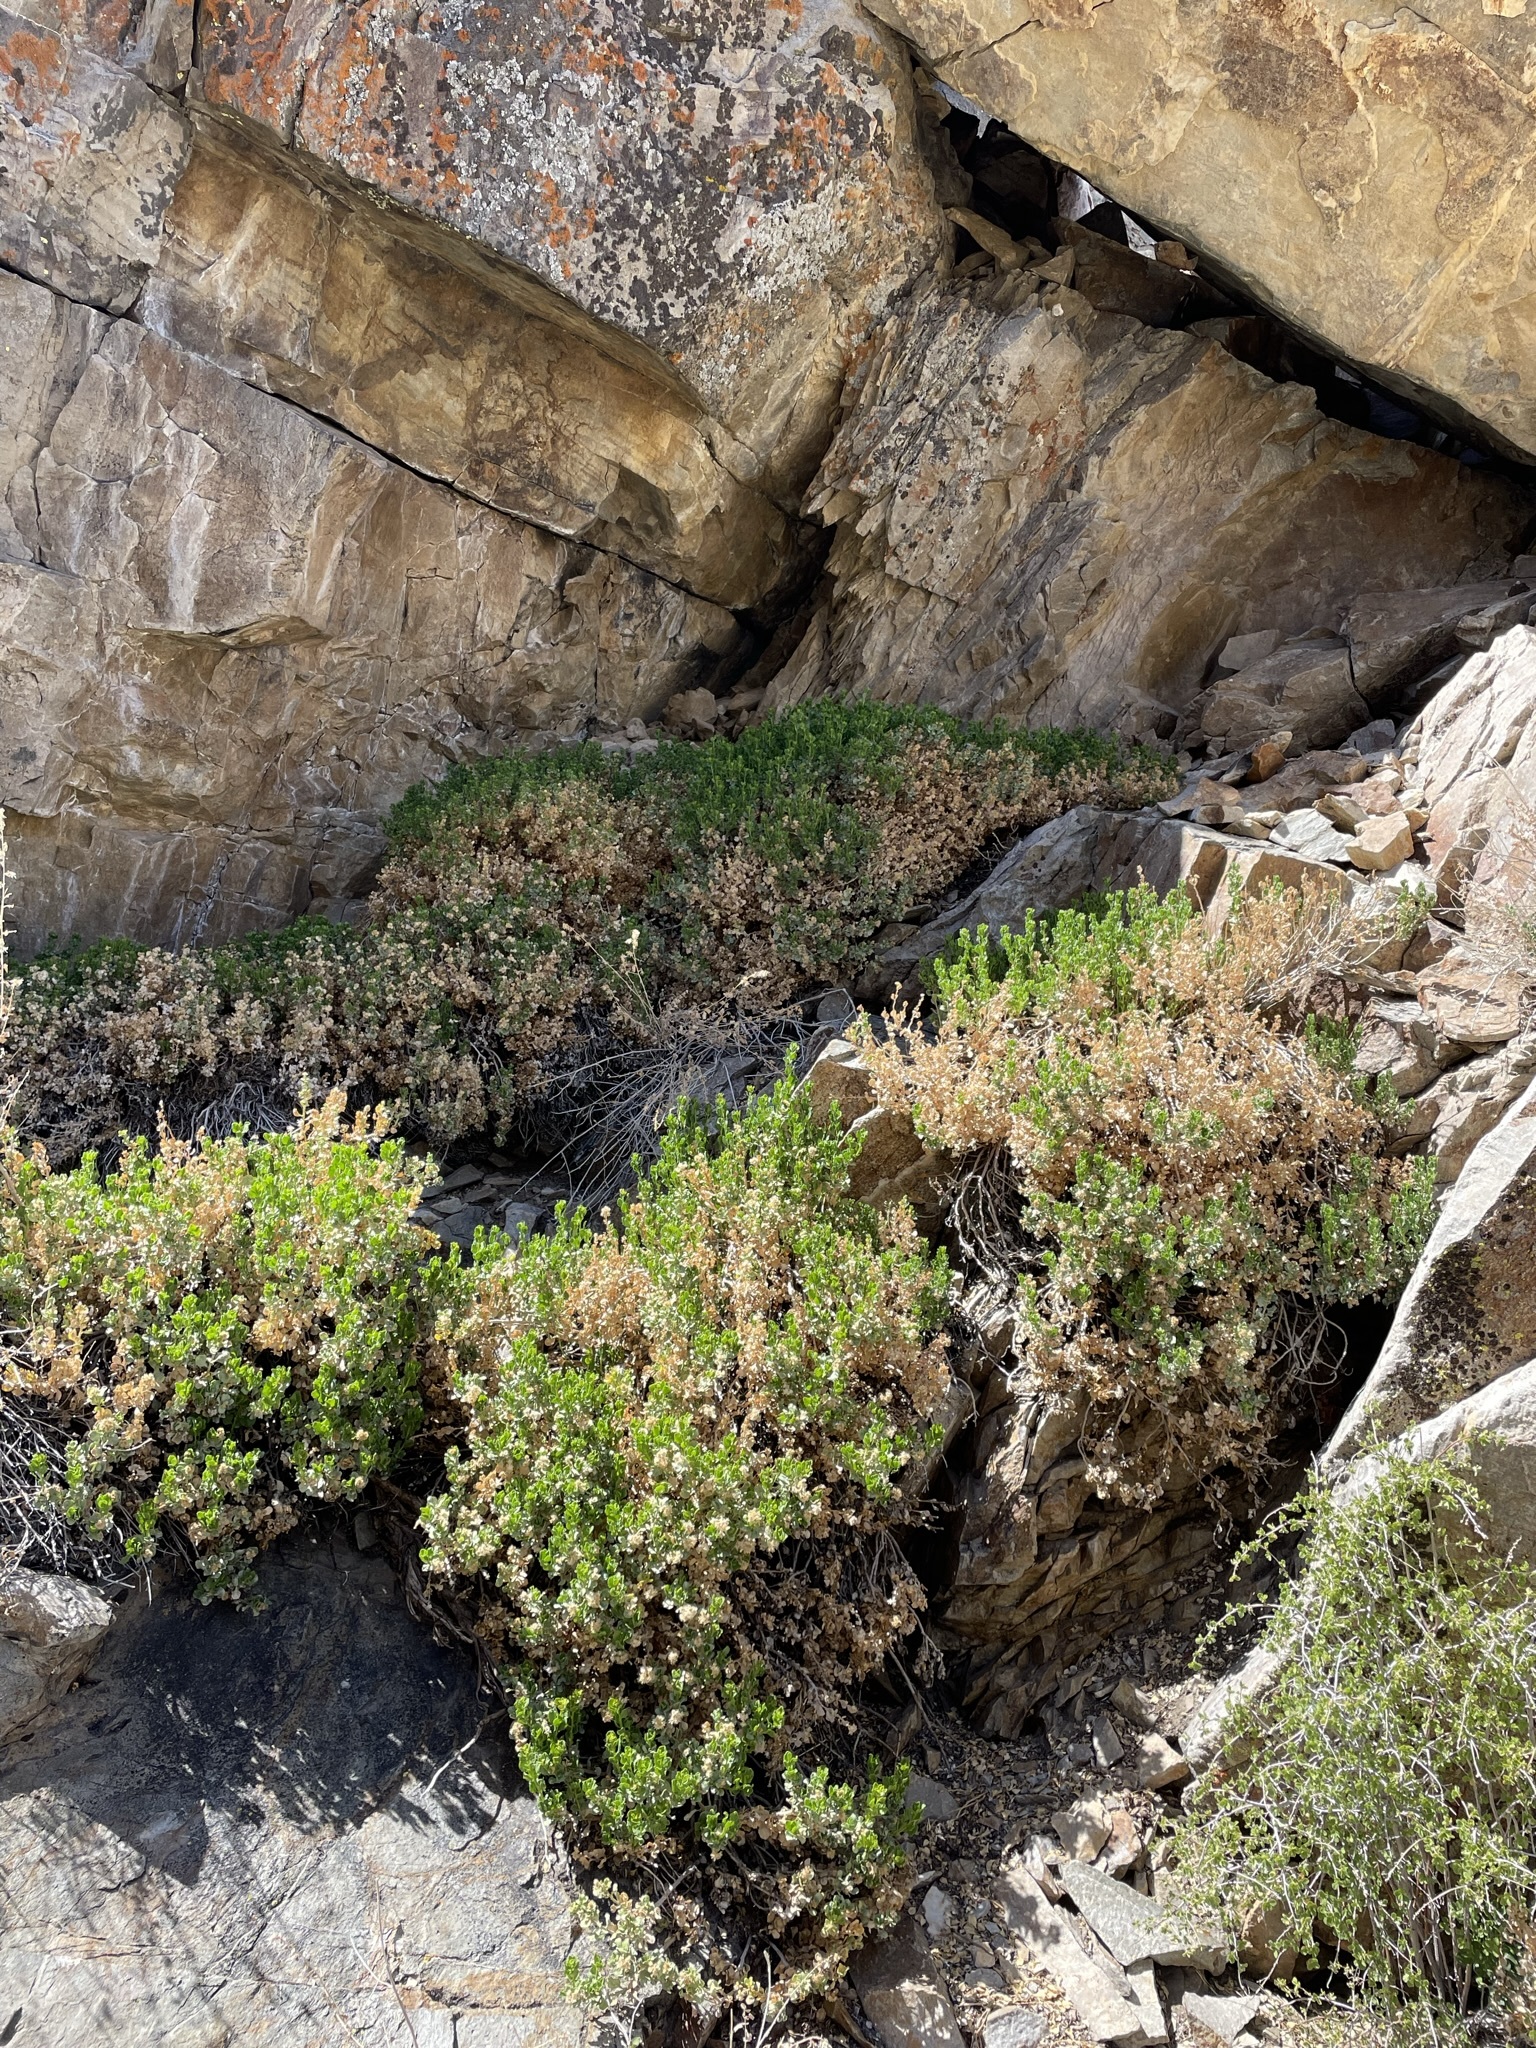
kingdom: Plantae
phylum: Tracheophyta
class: Magnoliopsida
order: Asterales
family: Asteraceae
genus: Ericameria
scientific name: Ericameria cuneata
